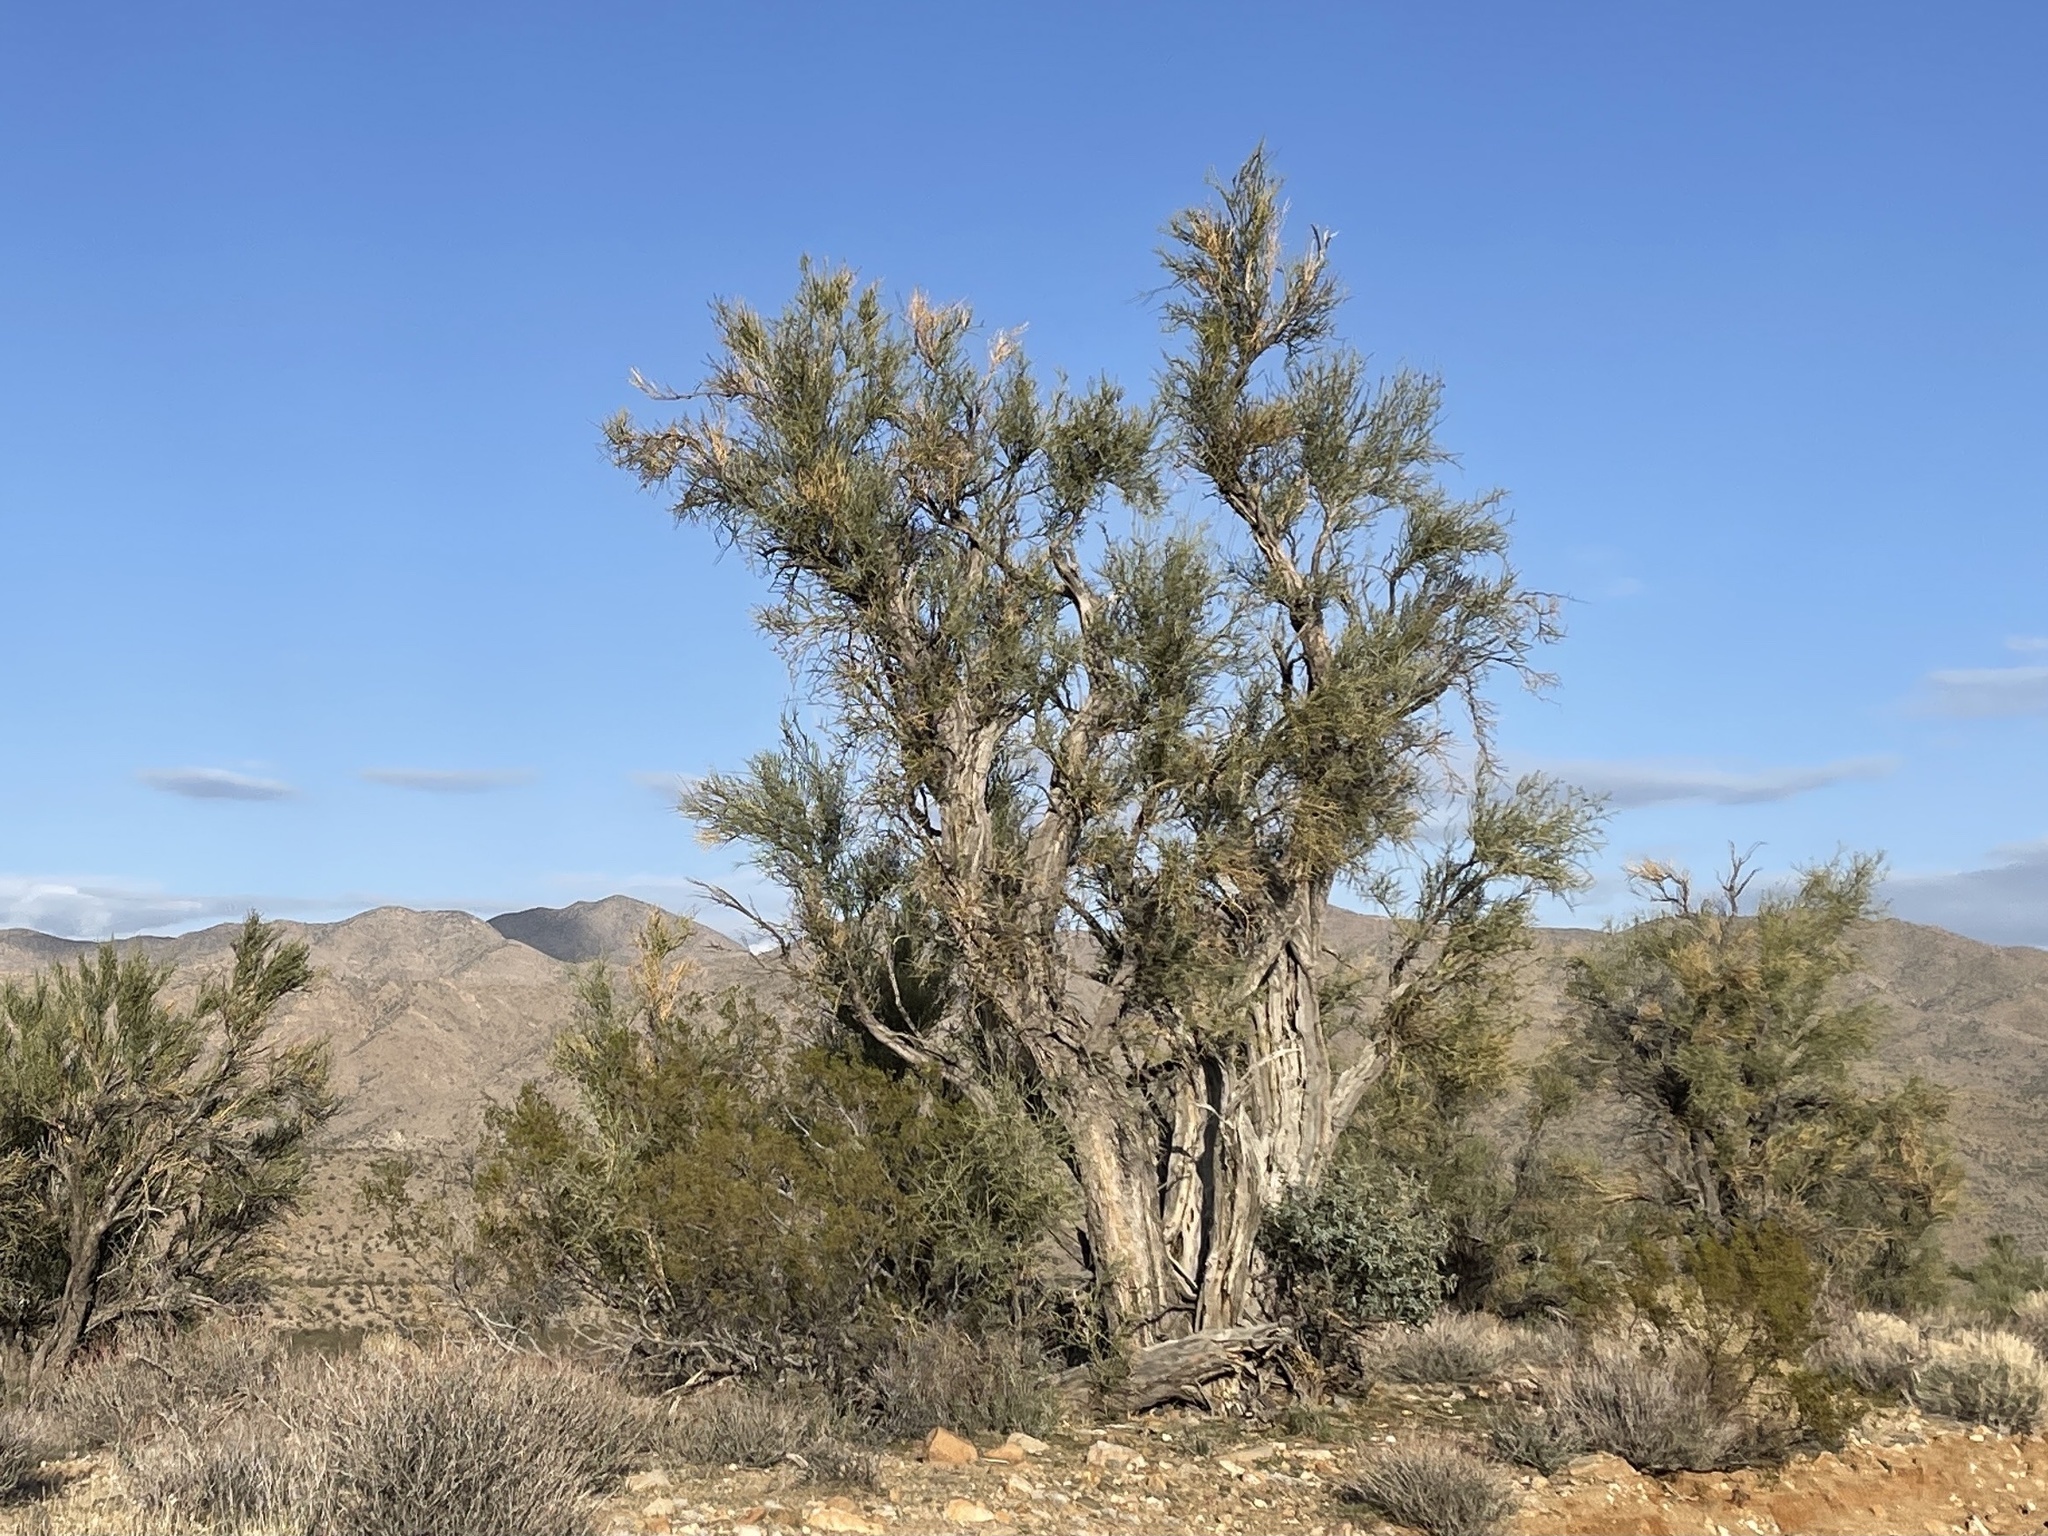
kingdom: Plantae
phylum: Tracheophyta
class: Magnoliopsida
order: Celastrales
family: Celastraceae
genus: Canotia
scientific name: Canotia holacantha
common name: Crucifixion thorns
